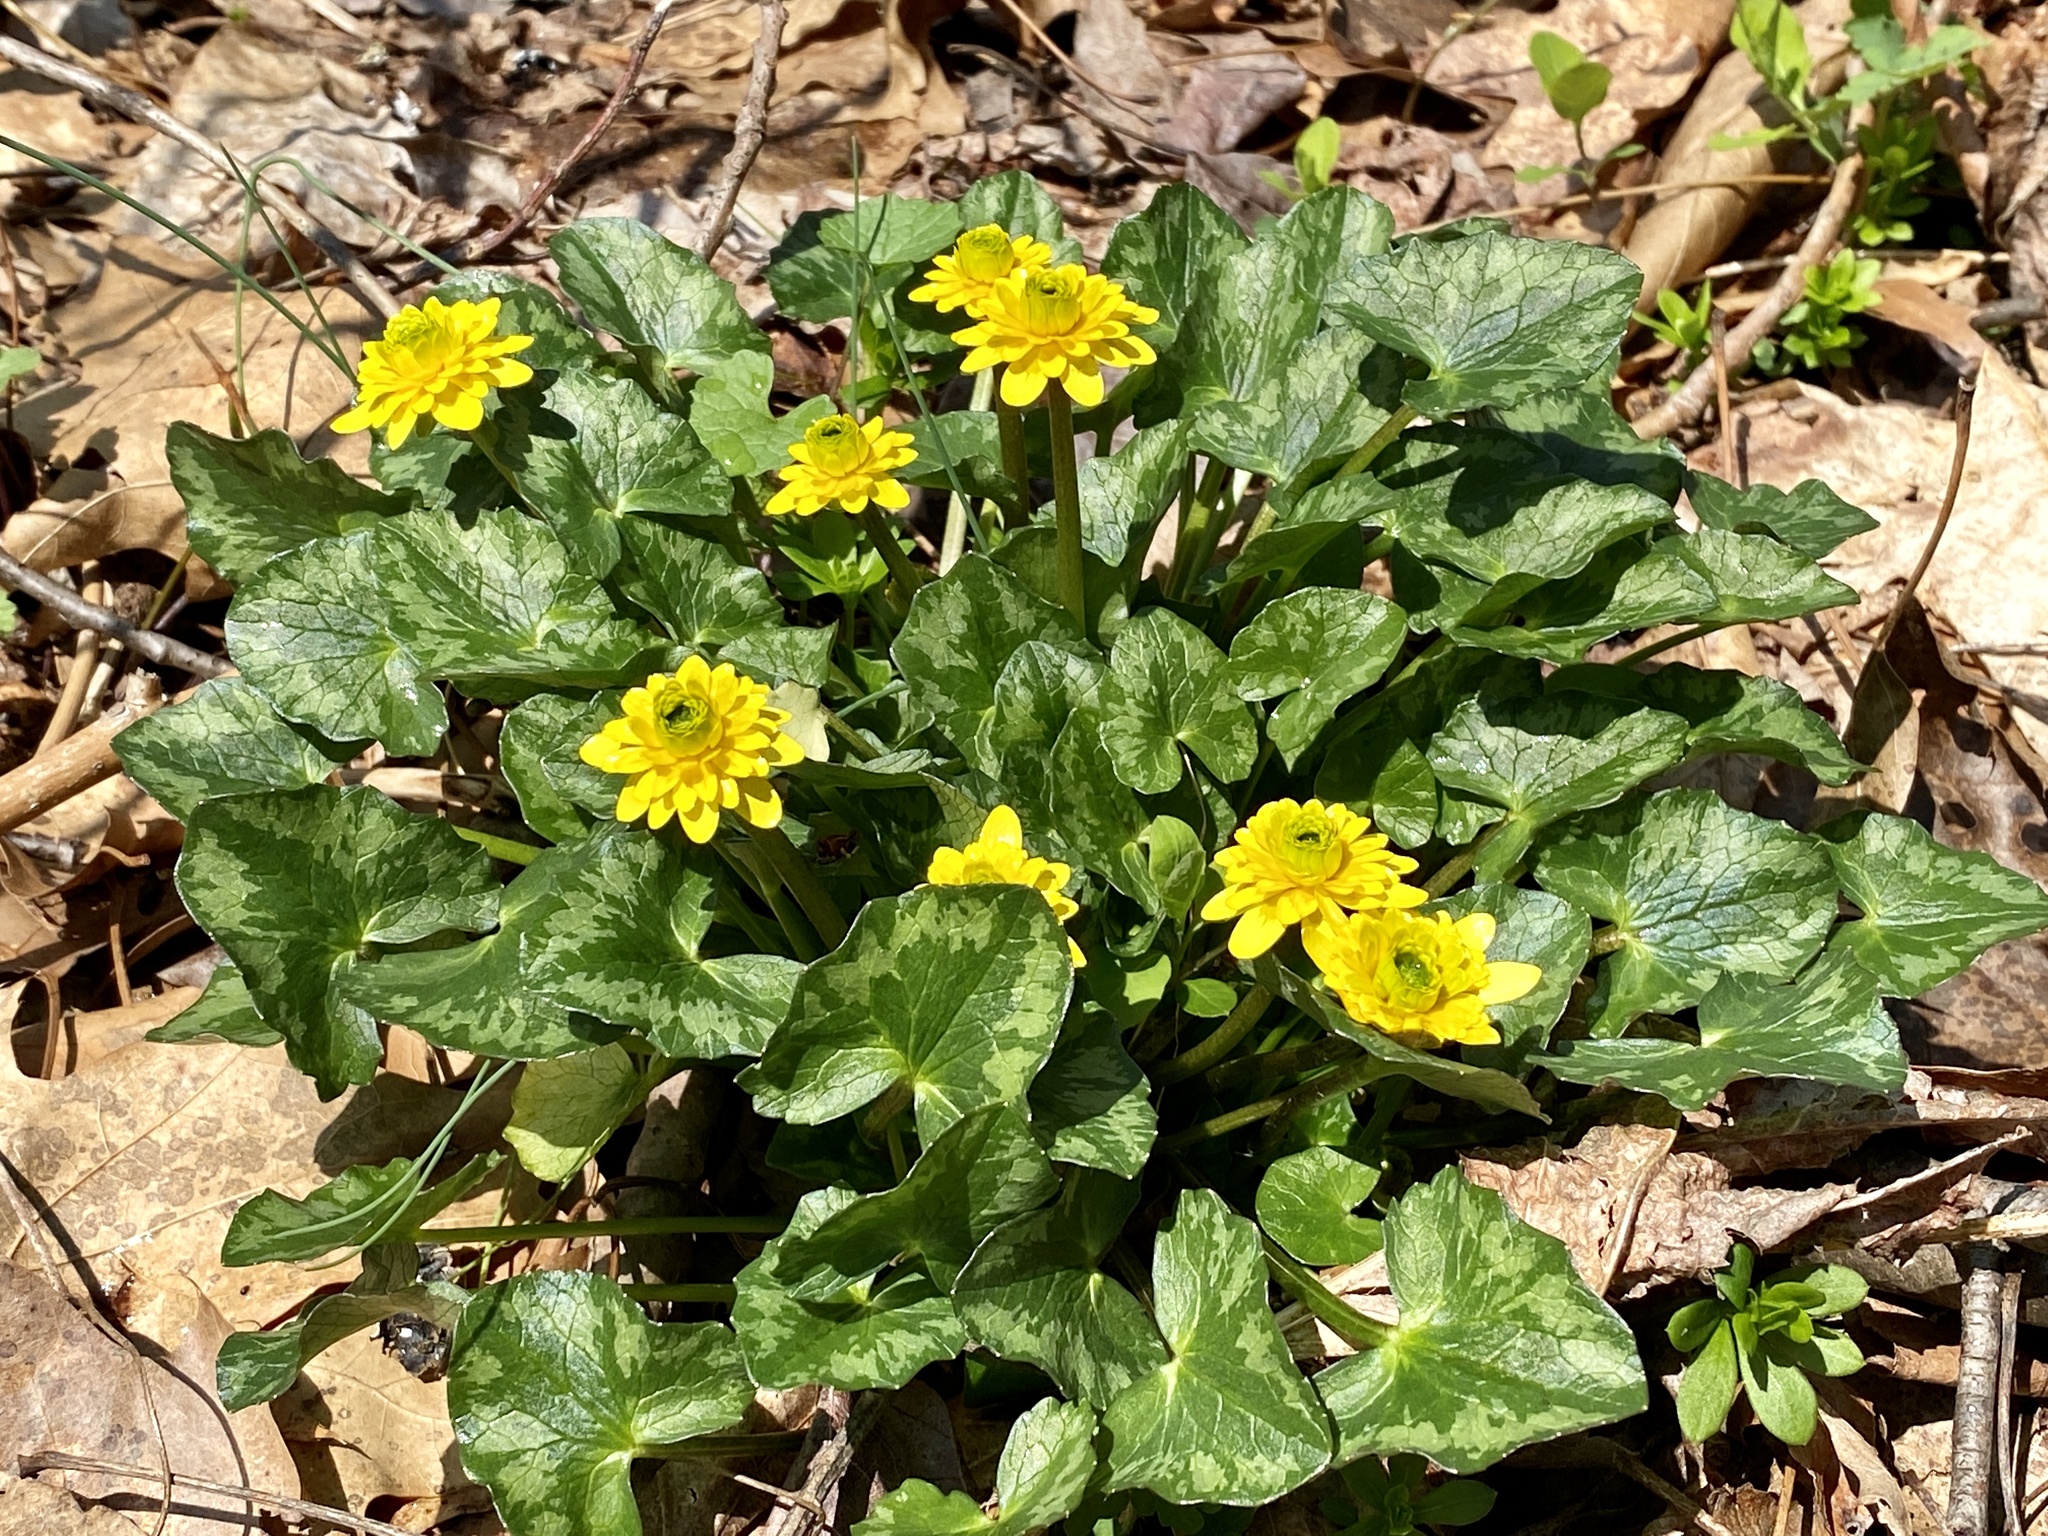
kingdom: Plantae
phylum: Tracheophyta
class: Magnoliopsida
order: Ranunculales
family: Ranunculaceae
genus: Ficaria
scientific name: Ficaria verna
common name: Lesser celandine
